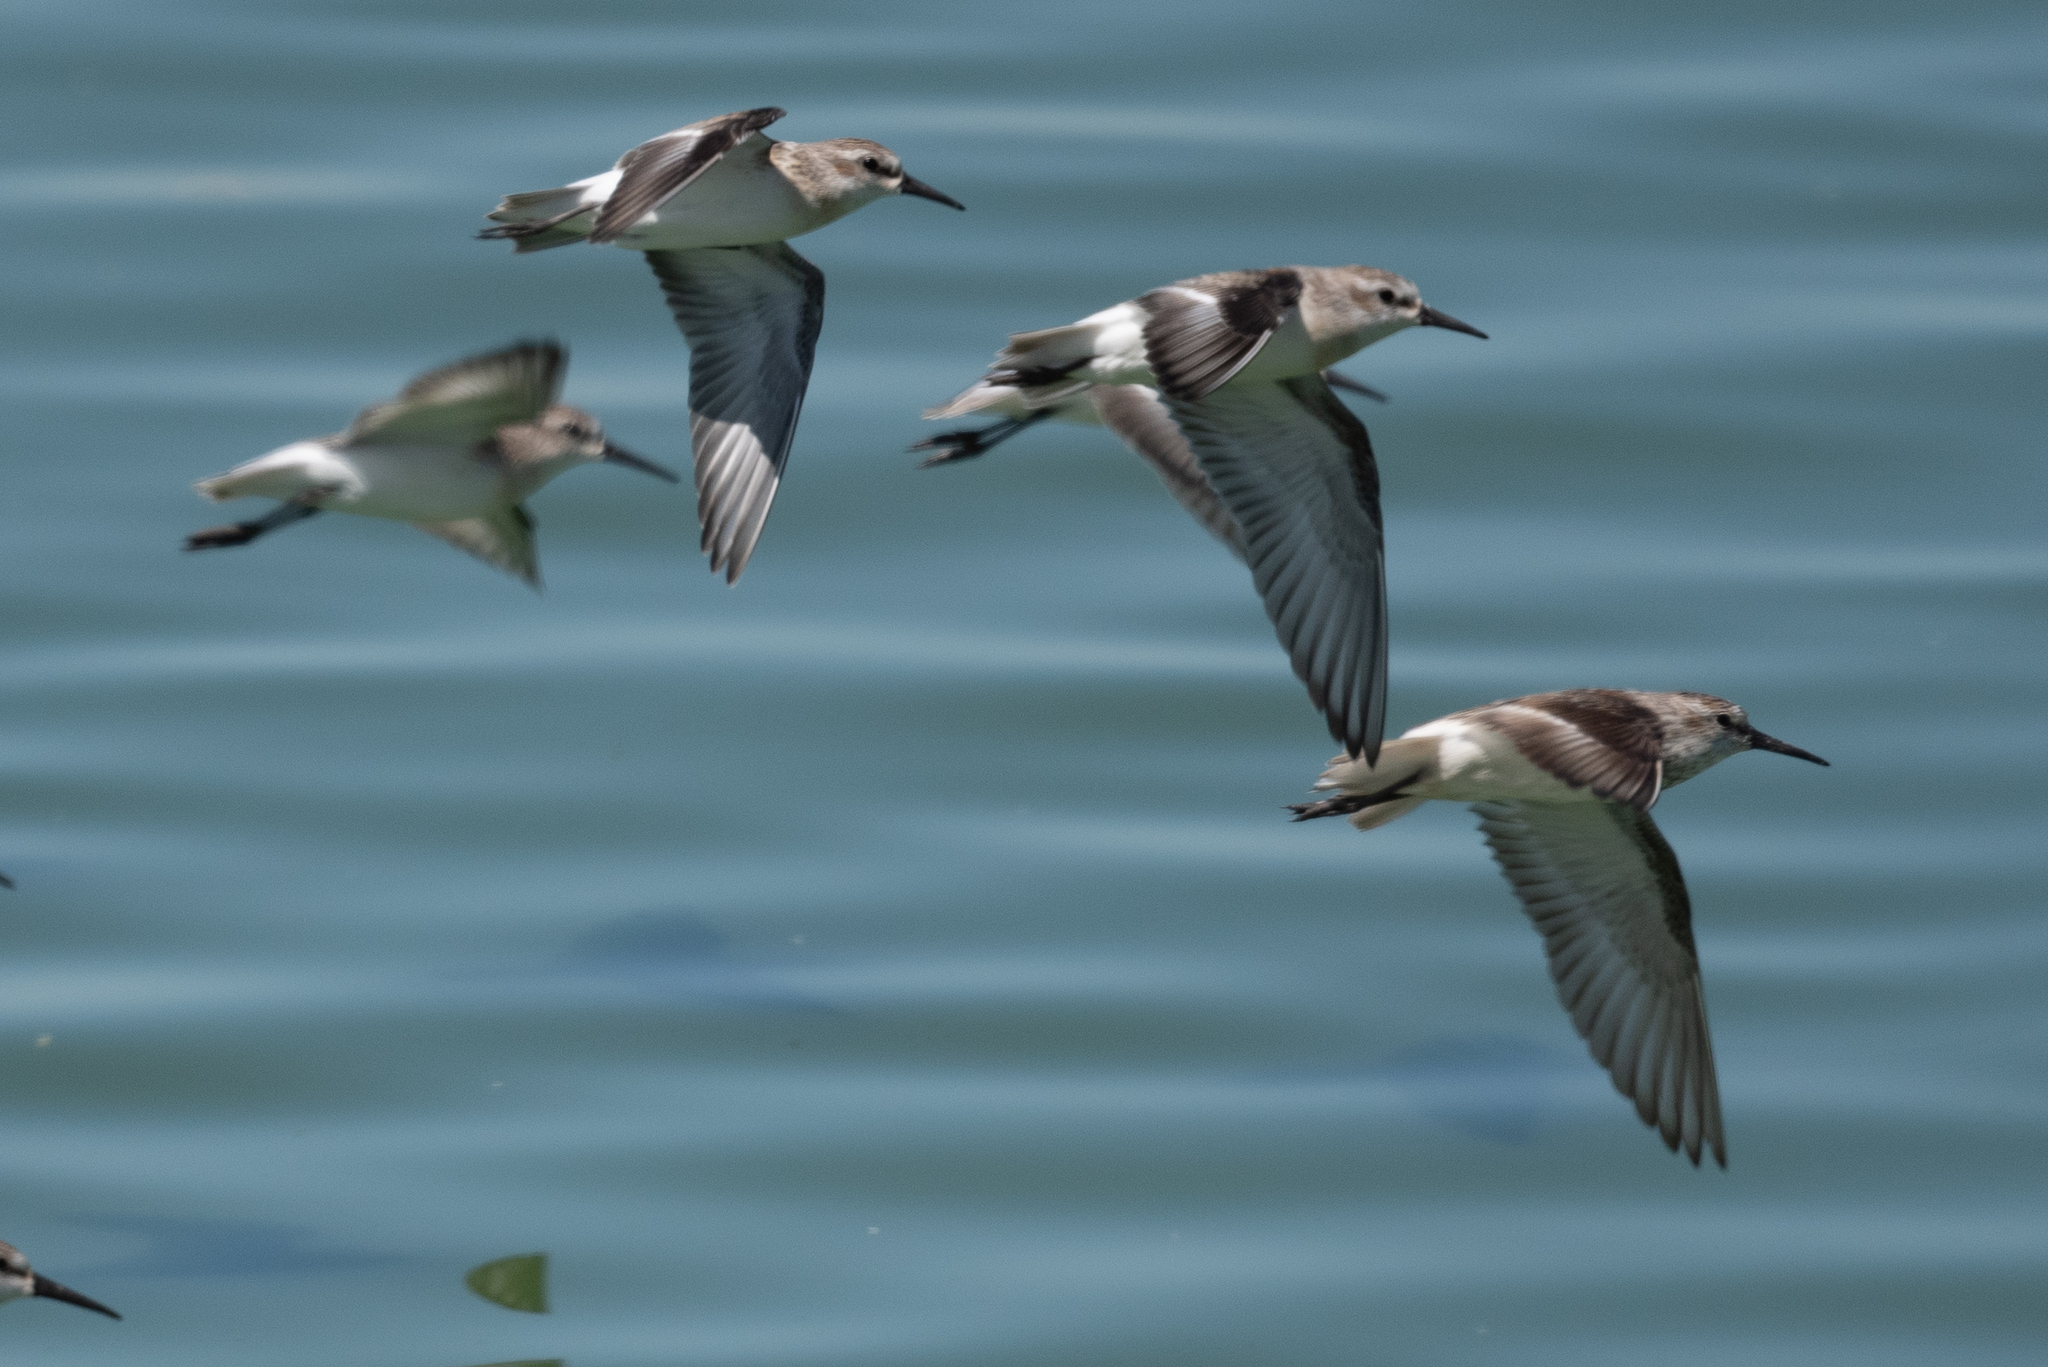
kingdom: Animalia
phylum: Chordata
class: Aves
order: Charadriiformes
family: Scolopacidae
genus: Calidris
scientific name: Calidris mauri
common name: Western sandpiper
